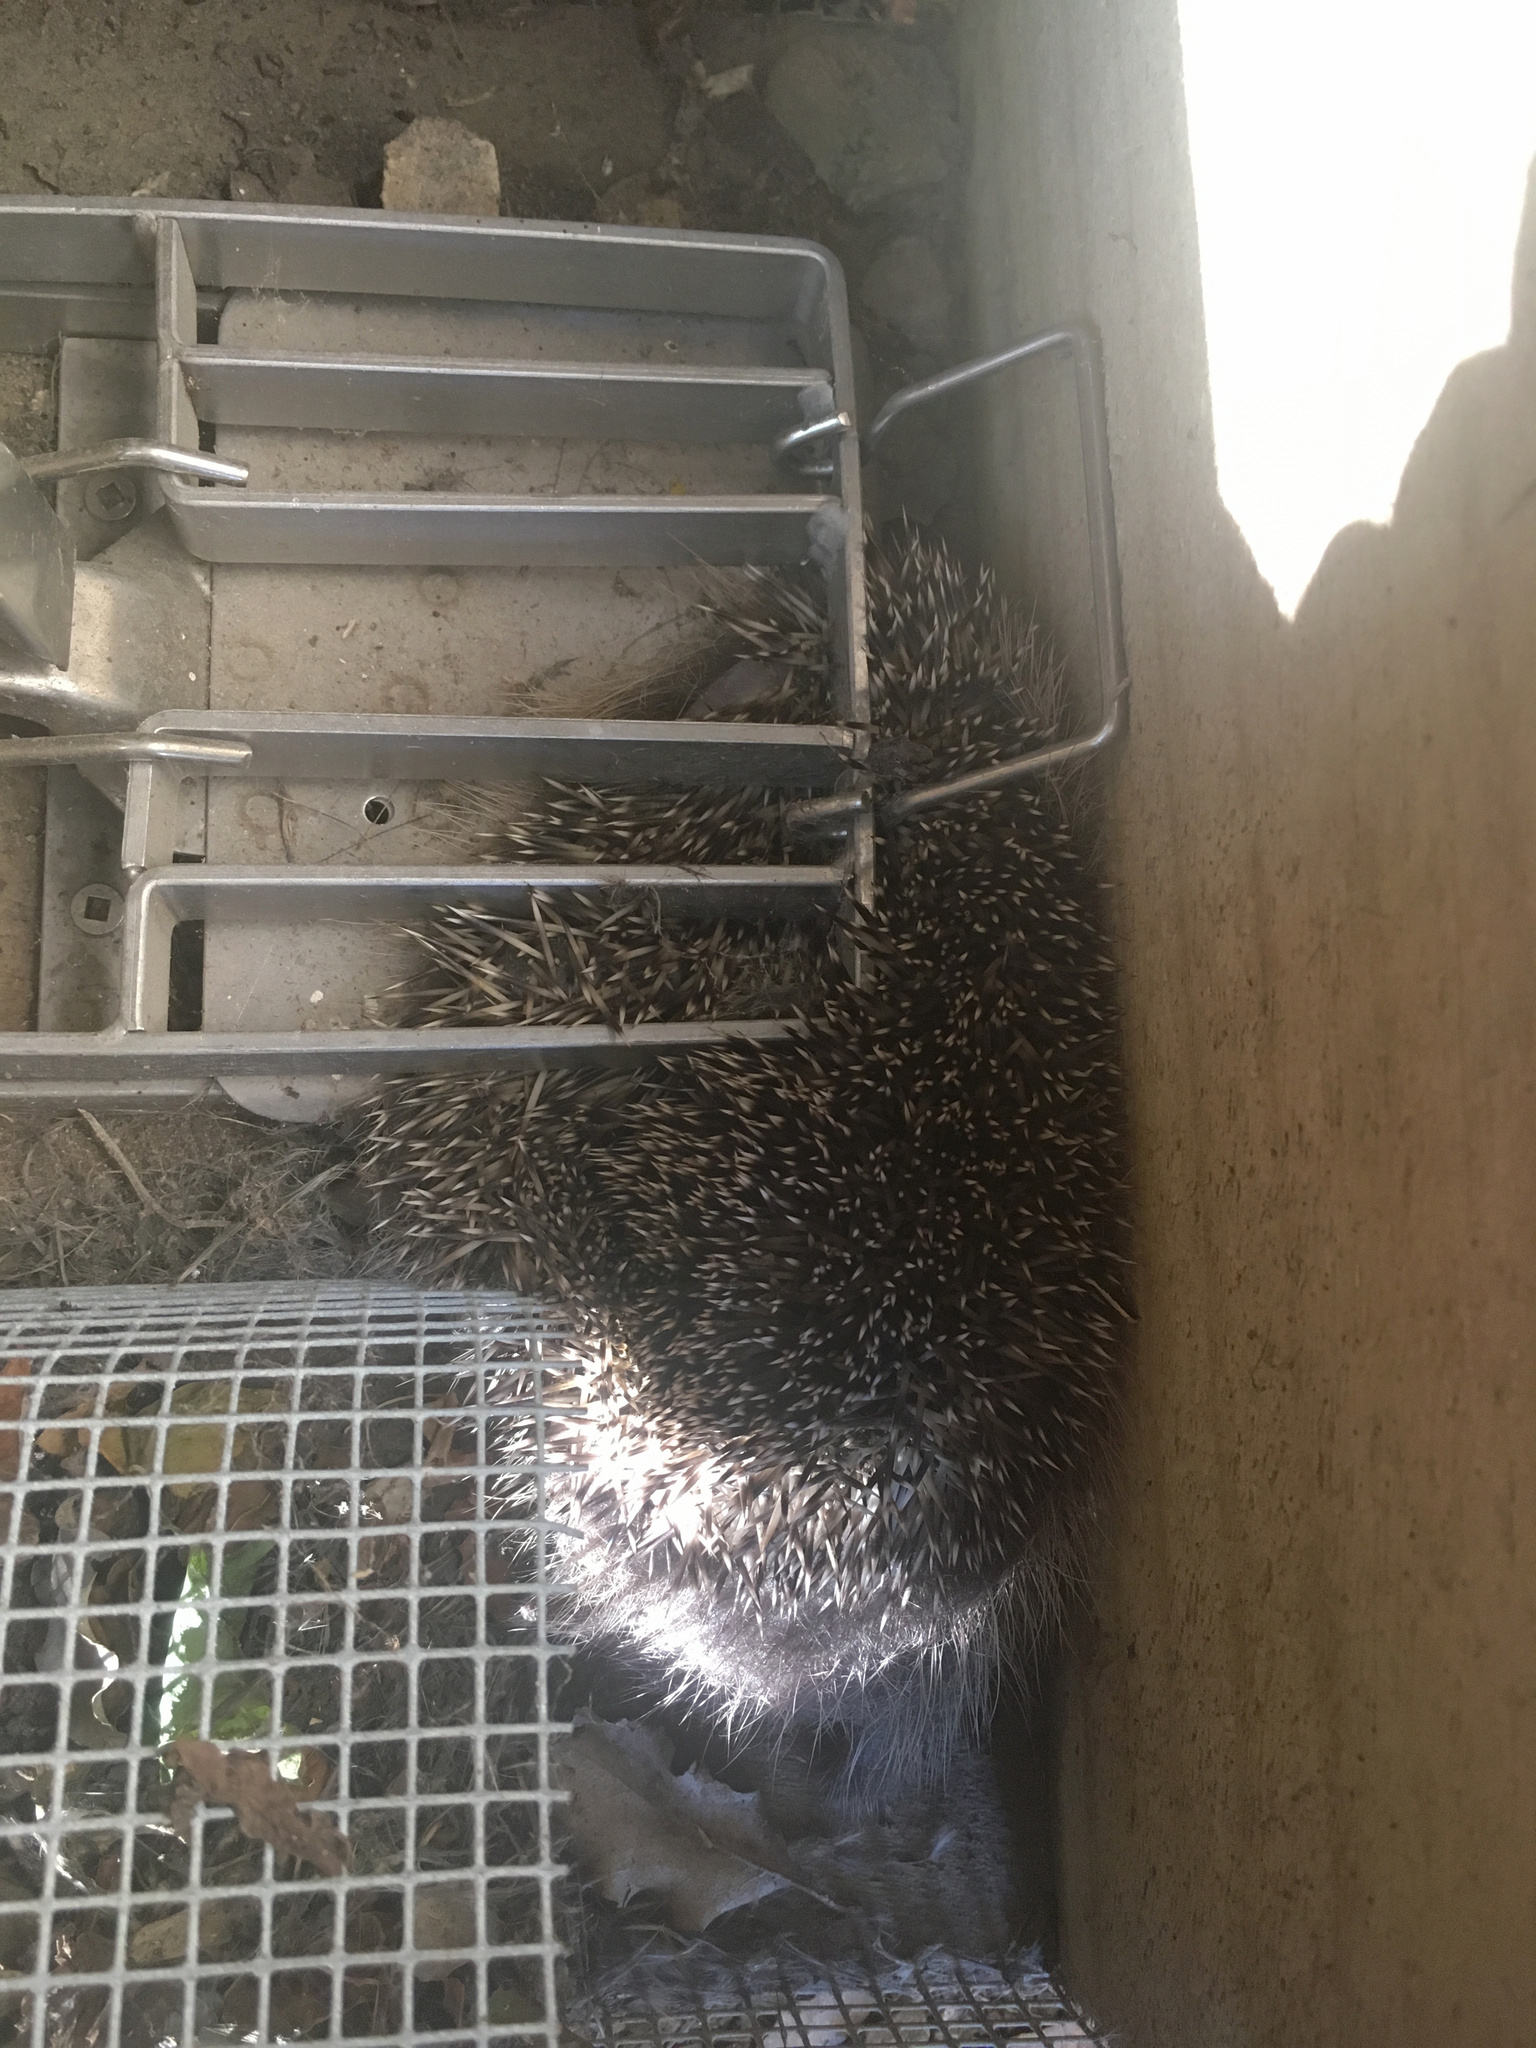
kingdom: Animalia
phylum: Chordata
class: Mammalia
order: Erinaceomorpha
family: Erinaceidae
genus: Erinaceus
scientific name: Erinaceus europaeus
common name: West european hedgehog
